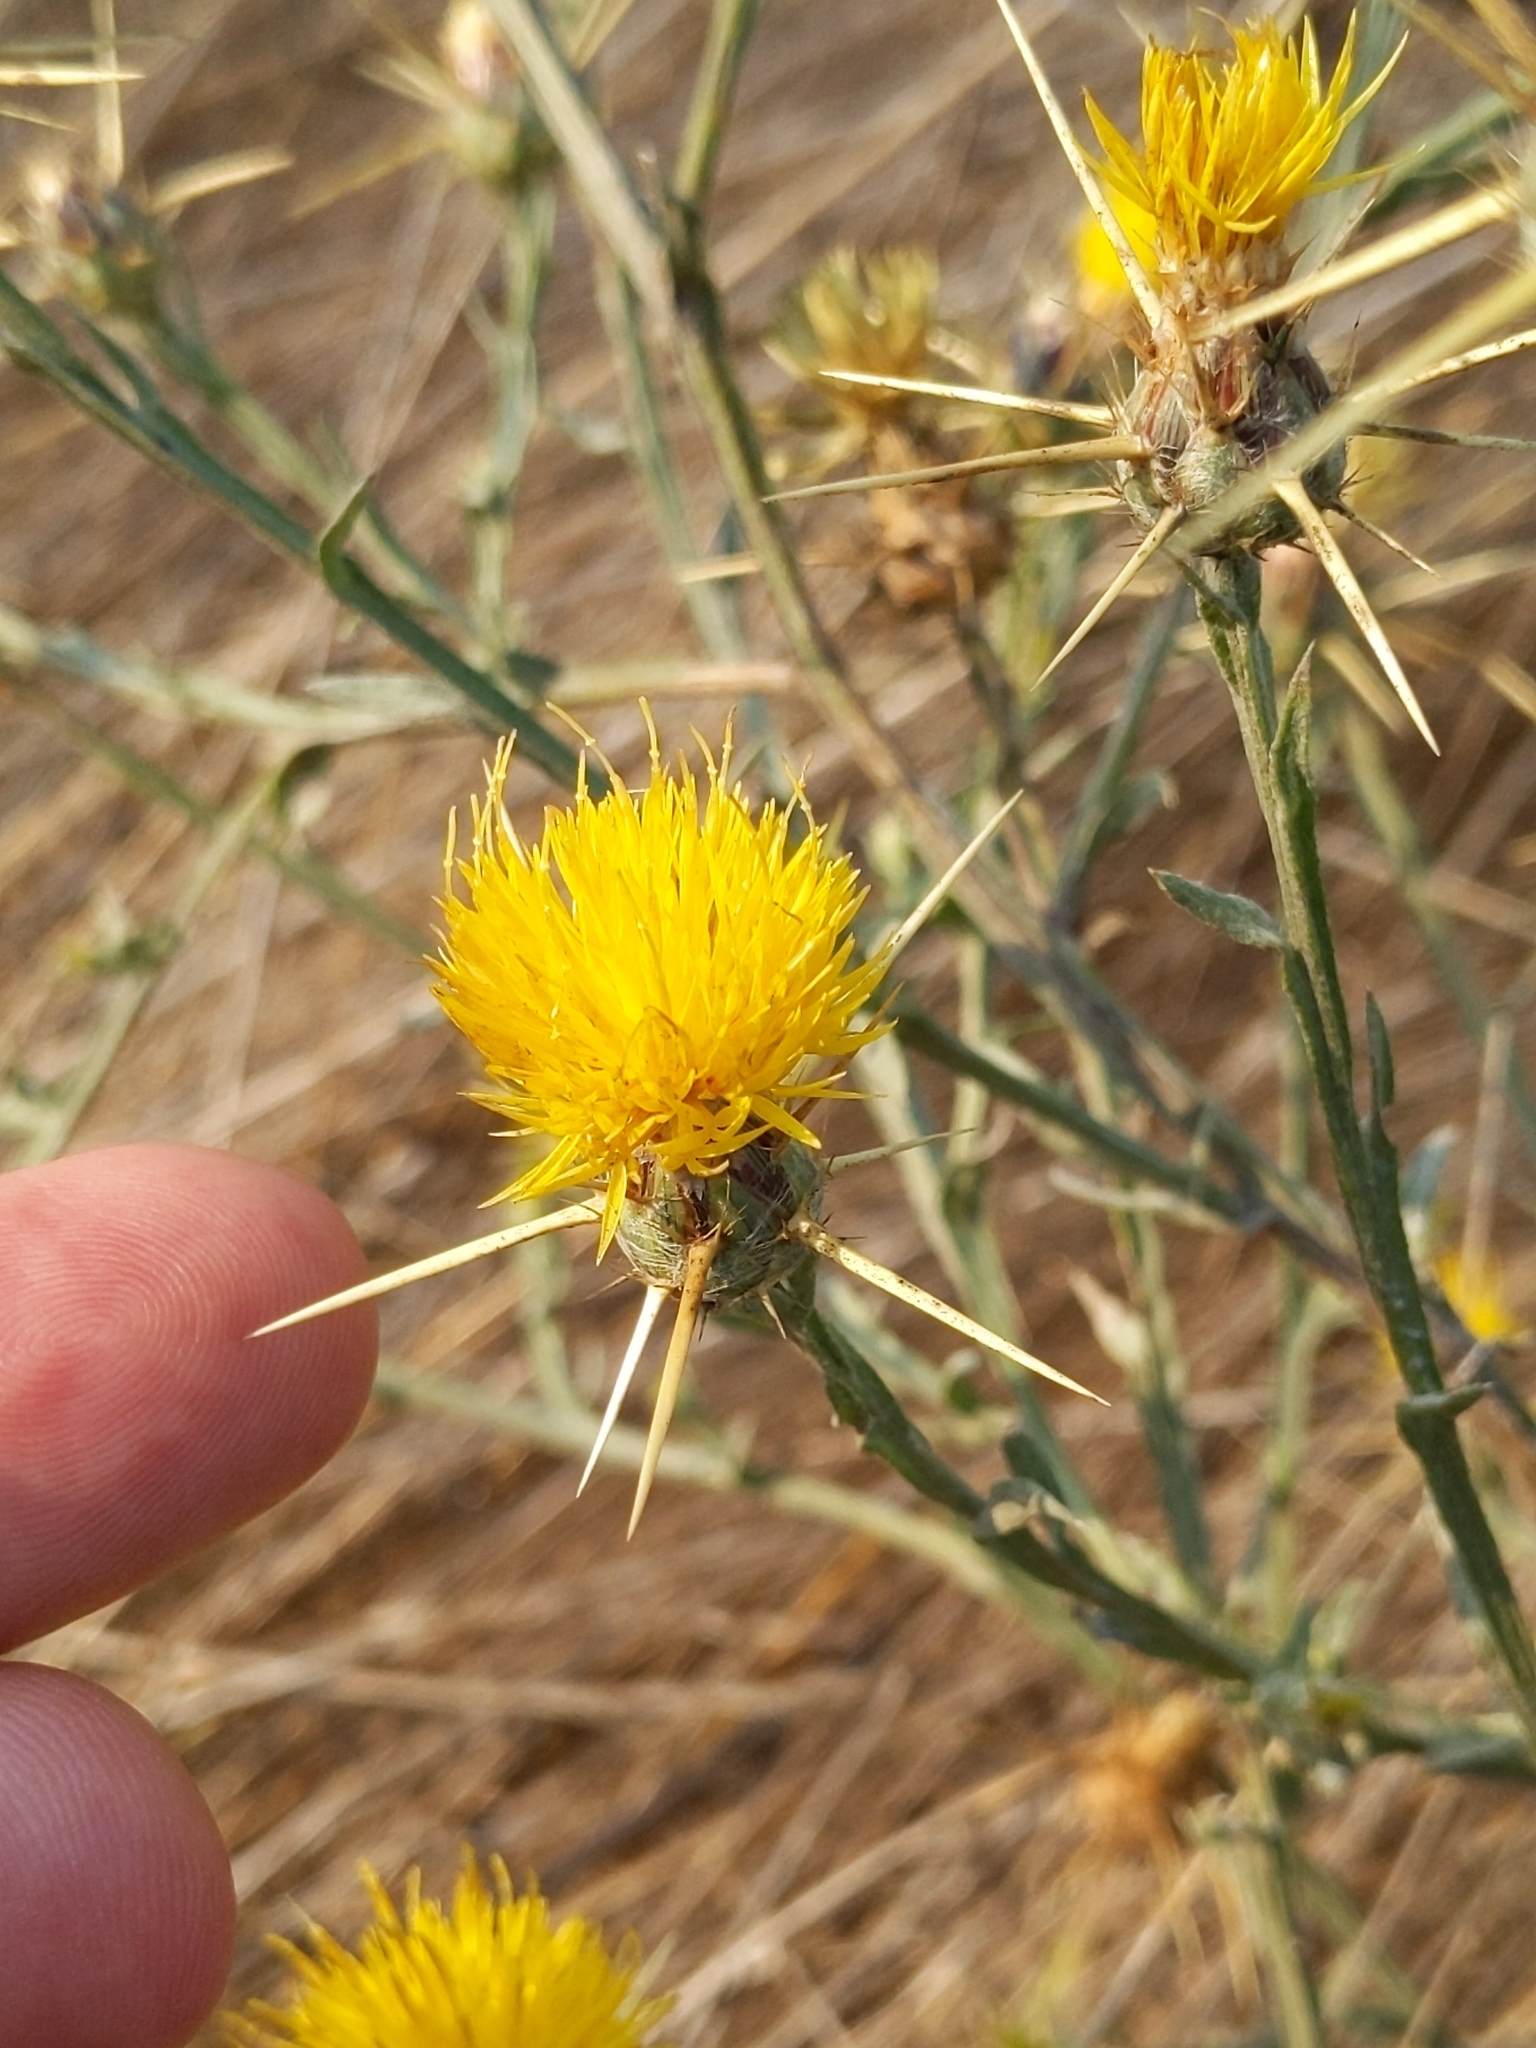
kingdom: Plantae
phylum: Tracheophyta
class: Magnoliopsida
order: Asterales
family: Asteraceae
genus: Centaurea
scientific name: Centaurea solstitialis
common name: Yellow star-thistle
